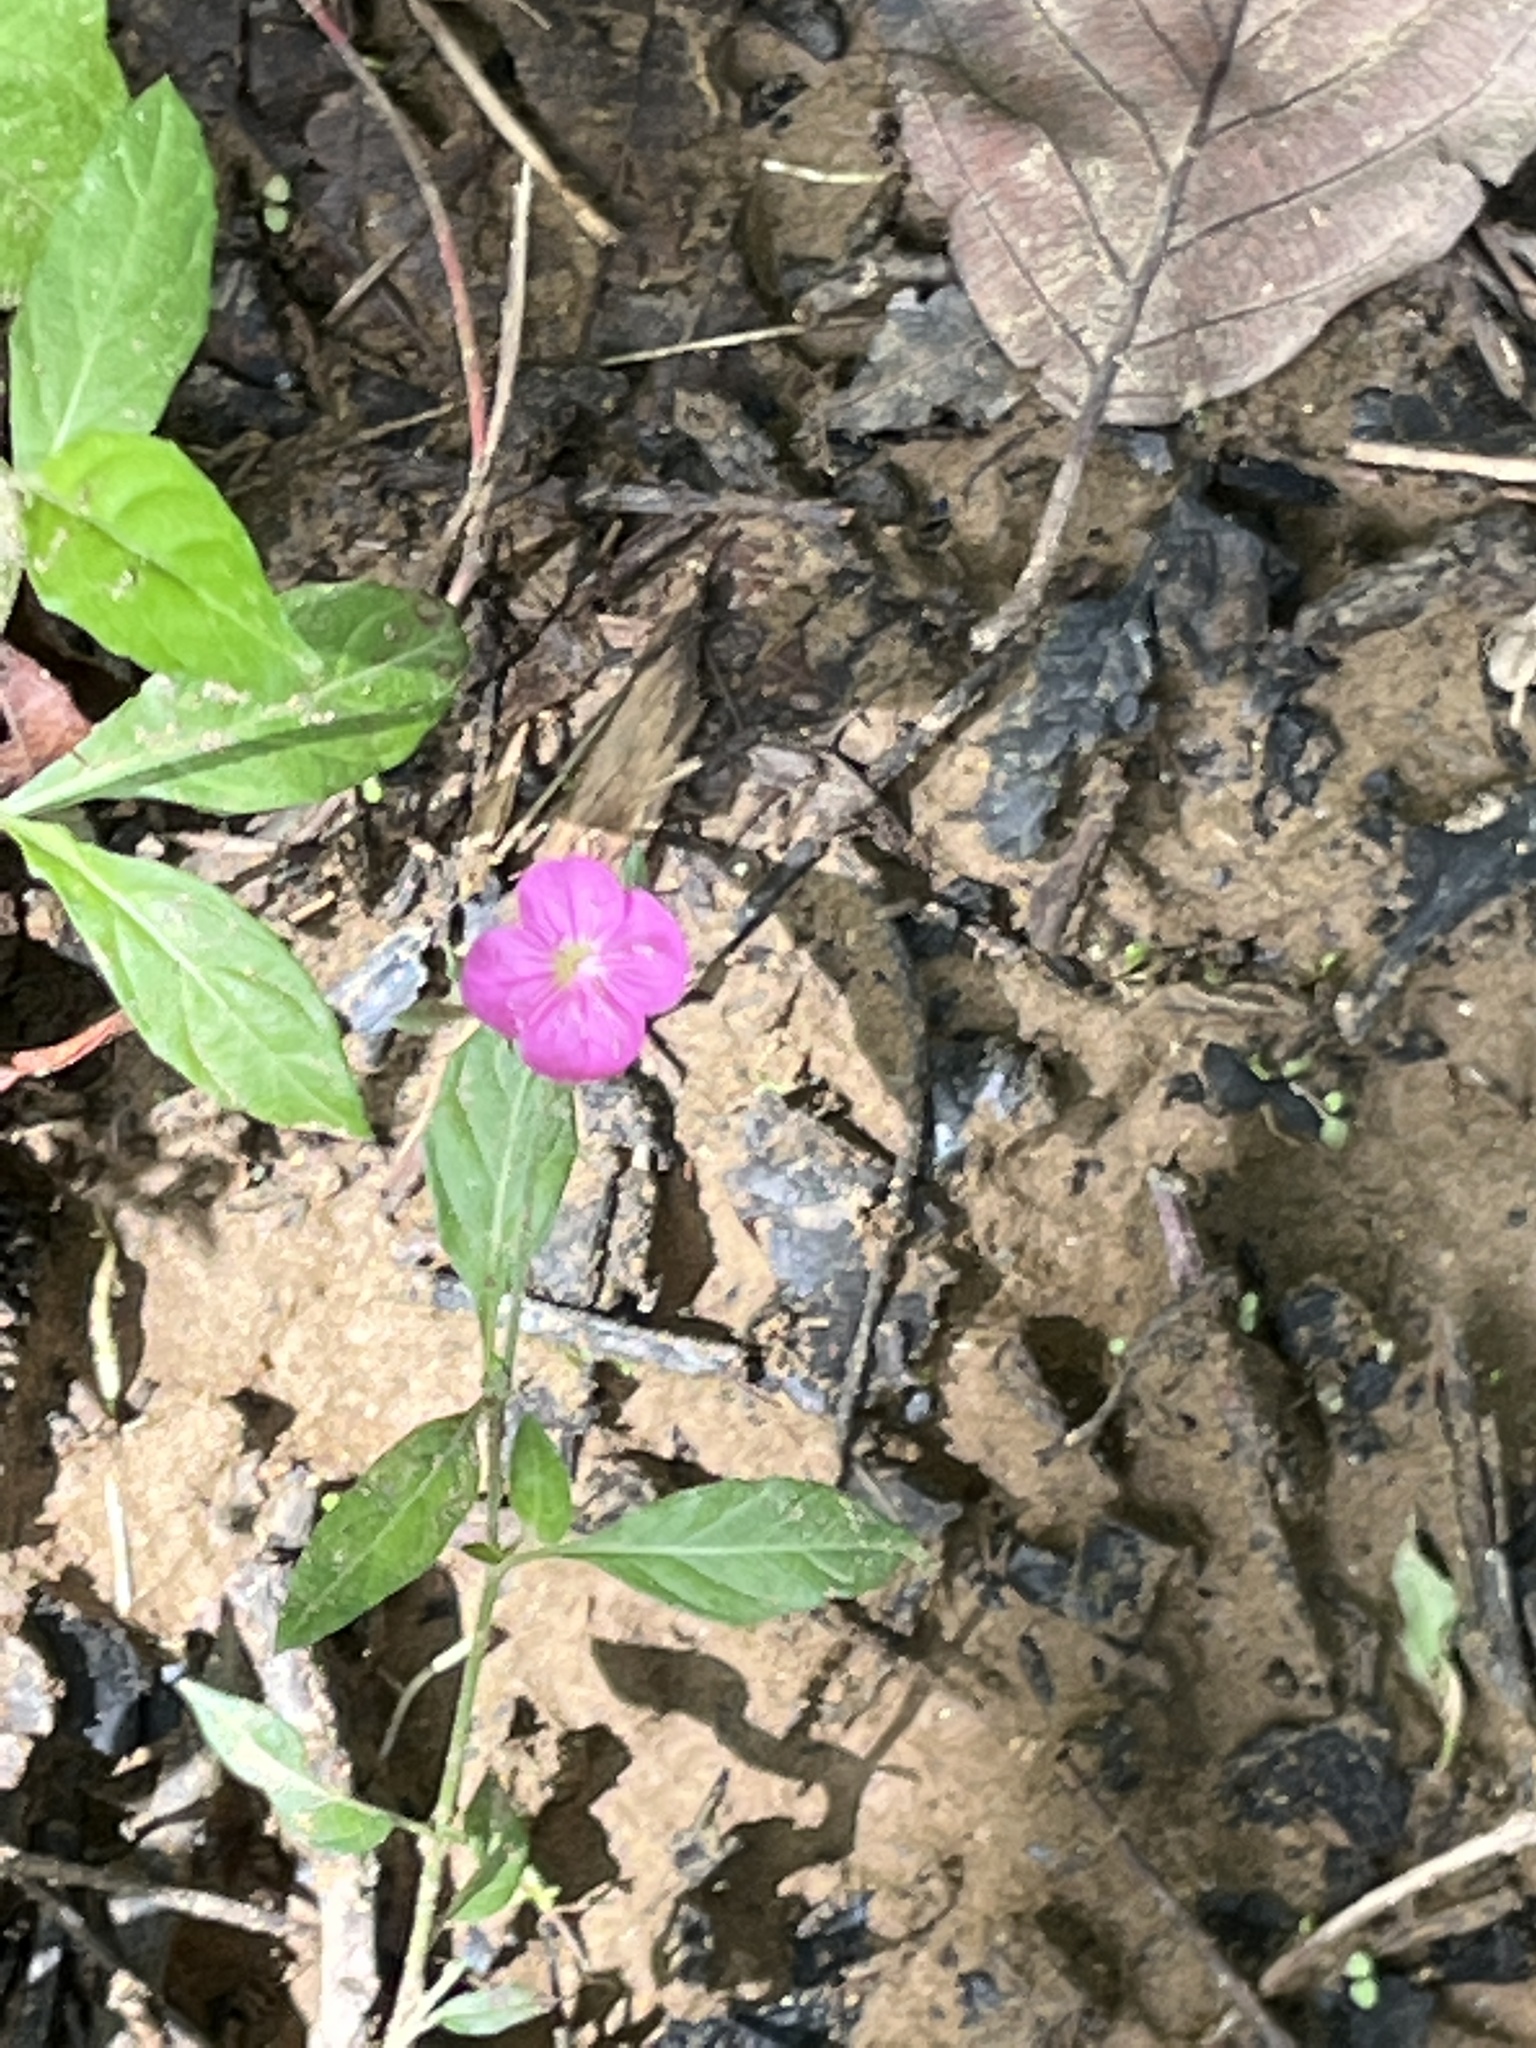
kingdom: Plantae
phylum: Tracheophyta
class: Magnoliopsida
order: Myrtales
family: Onagraceae
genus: Oenothera
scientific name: Oenothera rosea
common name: Rosy evening-primrose
